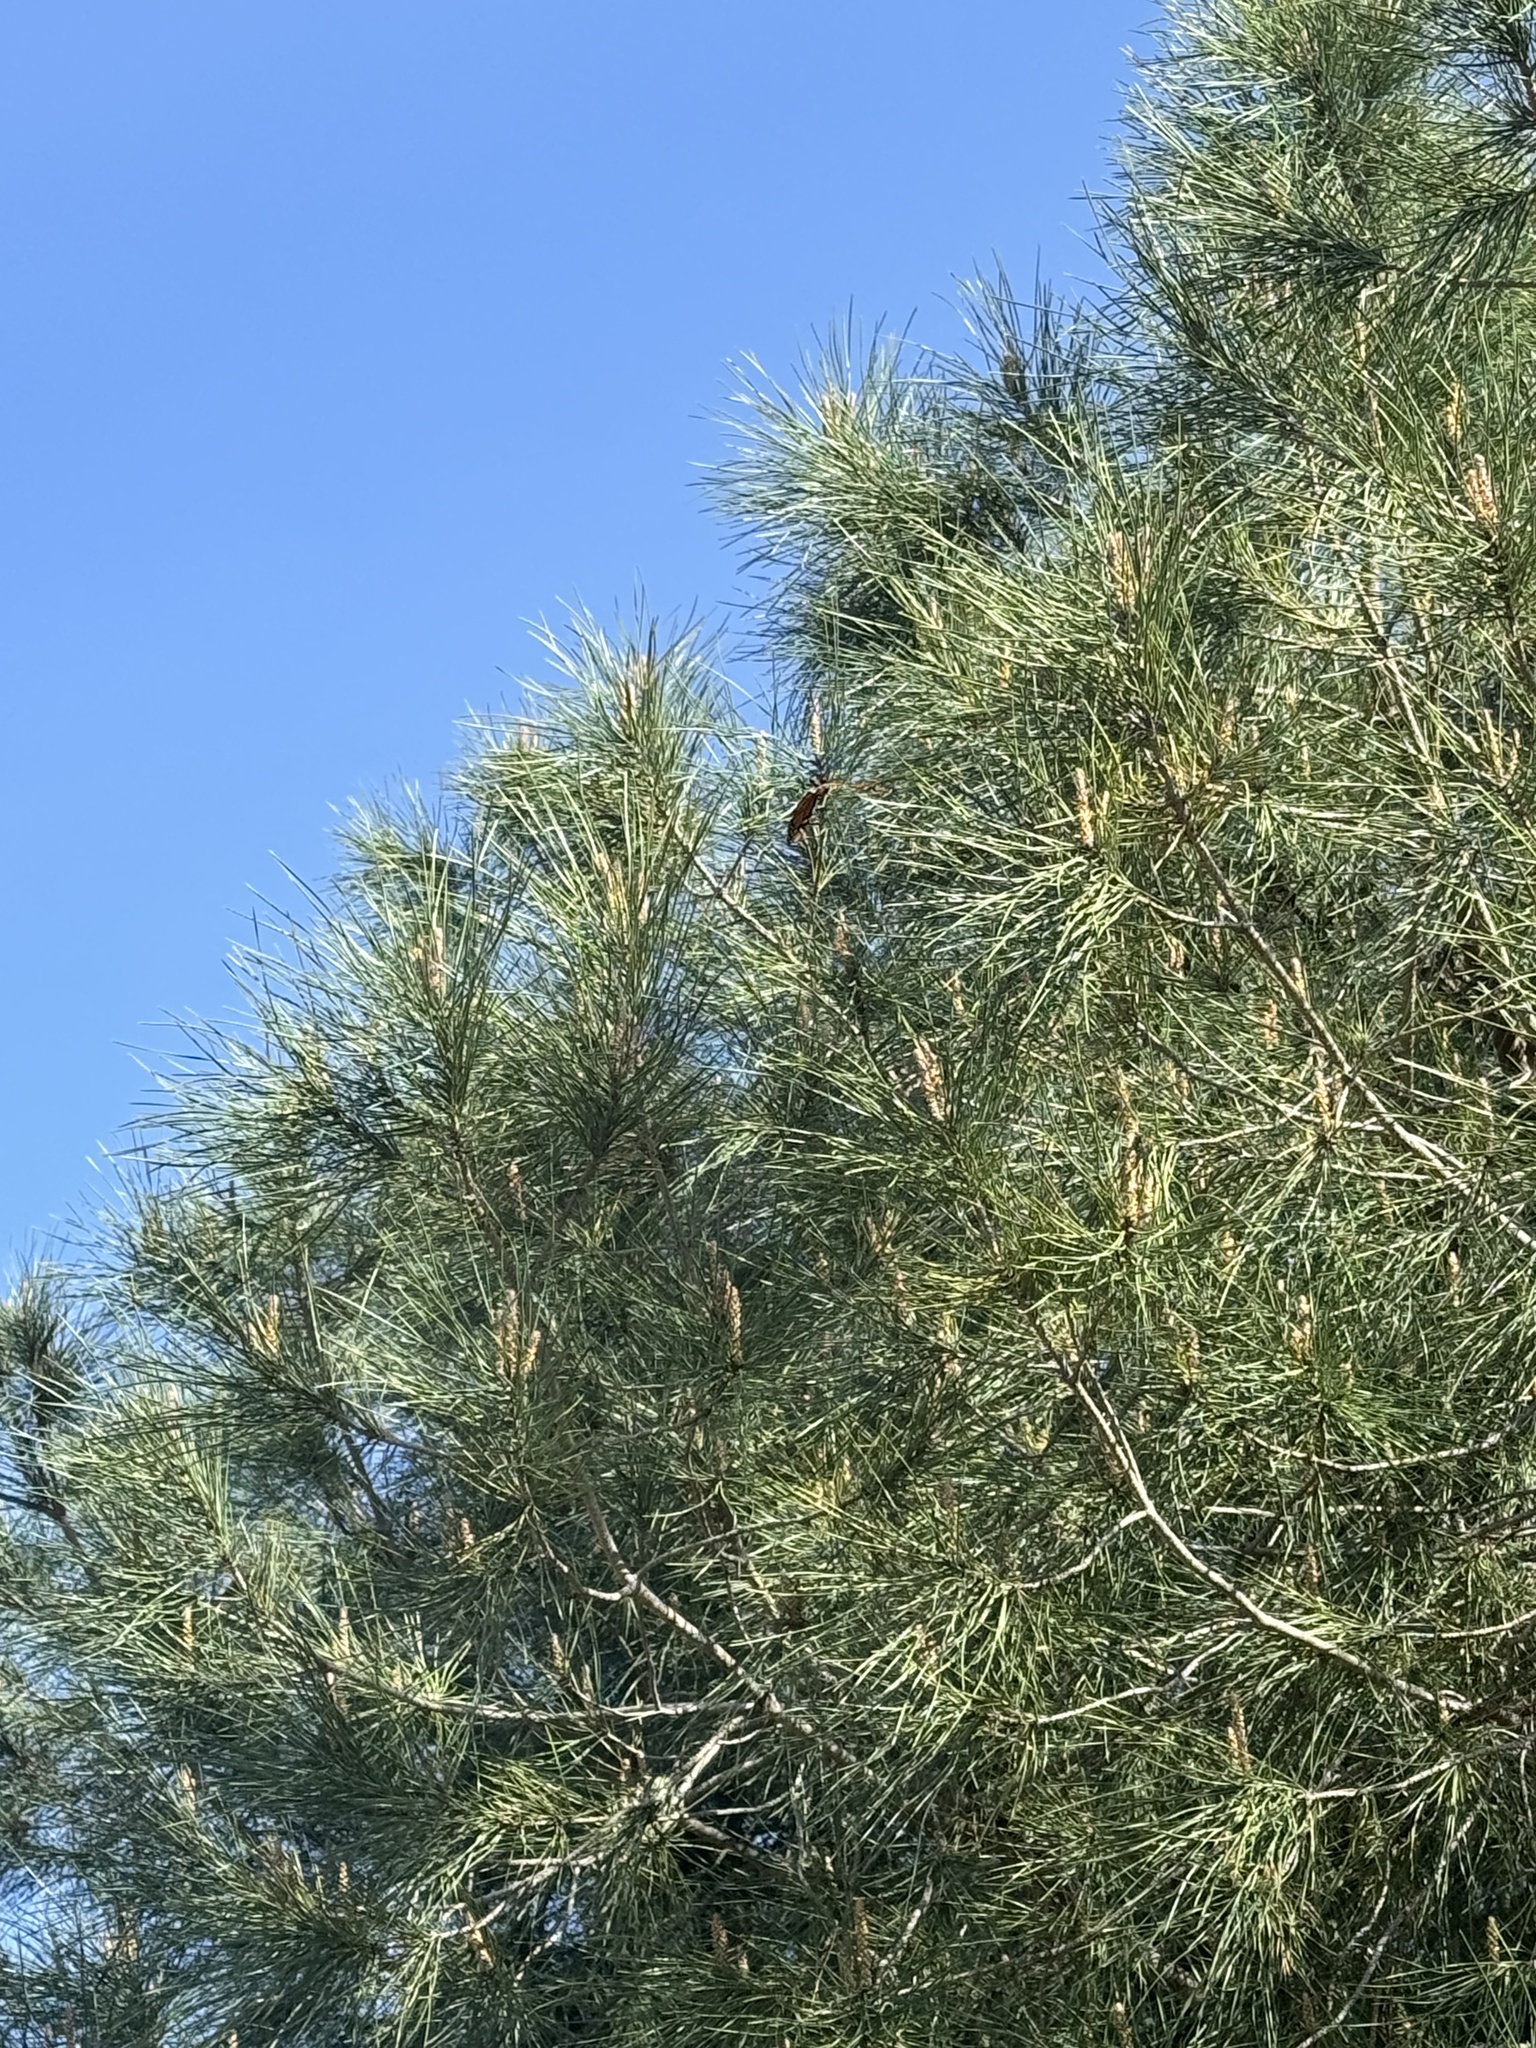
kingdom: Animalia
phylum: Arthropoda
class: Insecta
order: Lepidoptera
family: Nymphalidae
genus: Danaus
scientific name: Danaus plexippus
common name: Monarch
